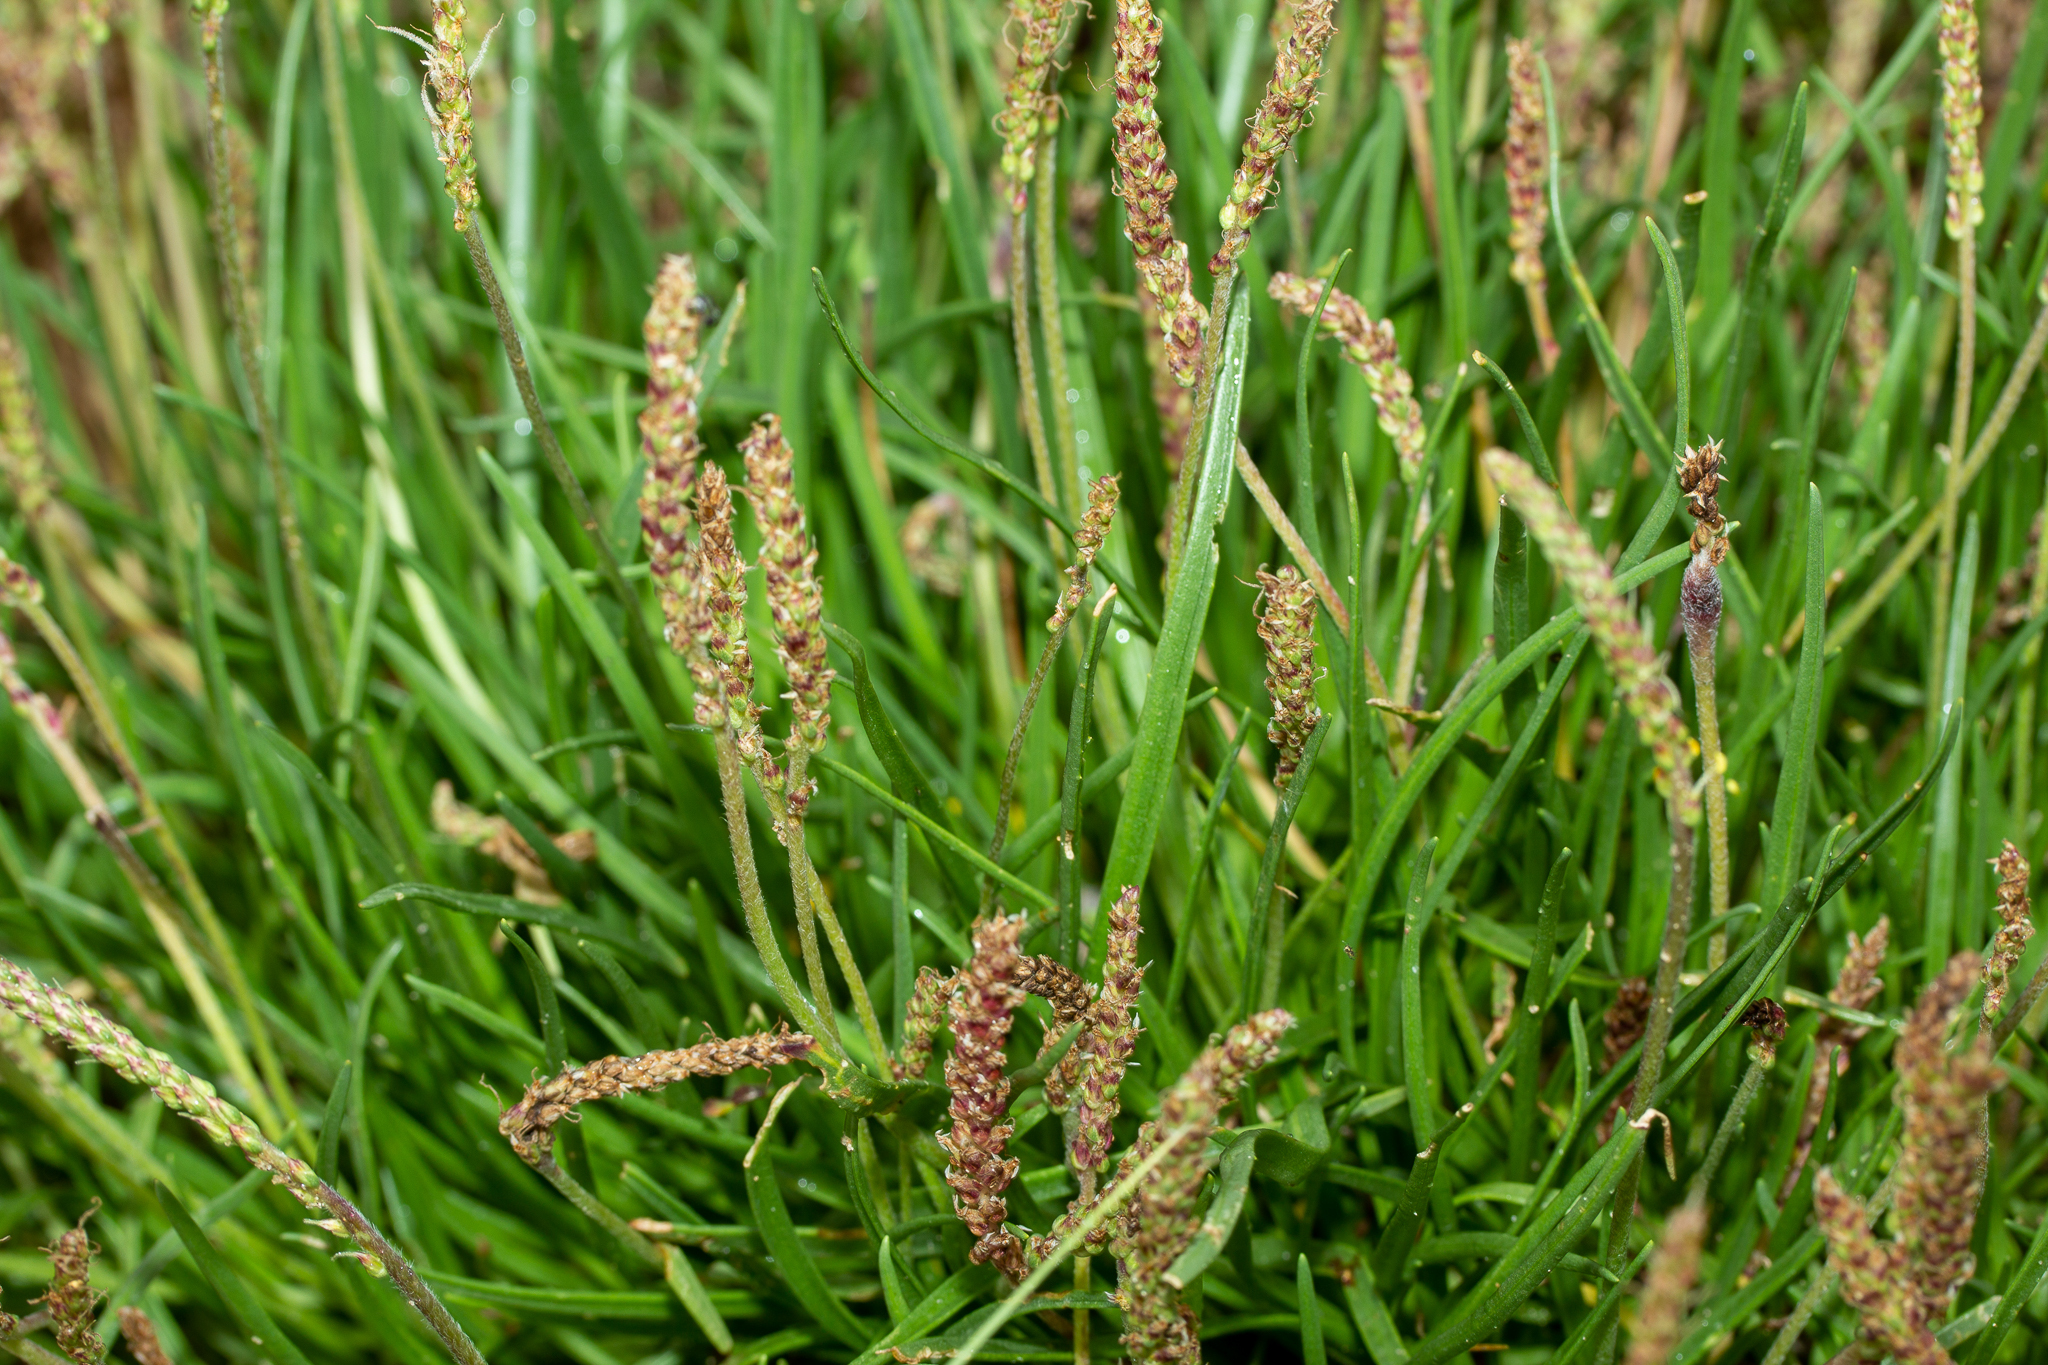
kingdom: Plantae
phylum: Tracheophyta
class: Magnoliopsida
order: Lamiales
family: Plantaginaceae
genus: Plantago
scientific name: Plantago maritima
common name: Sea plantain
